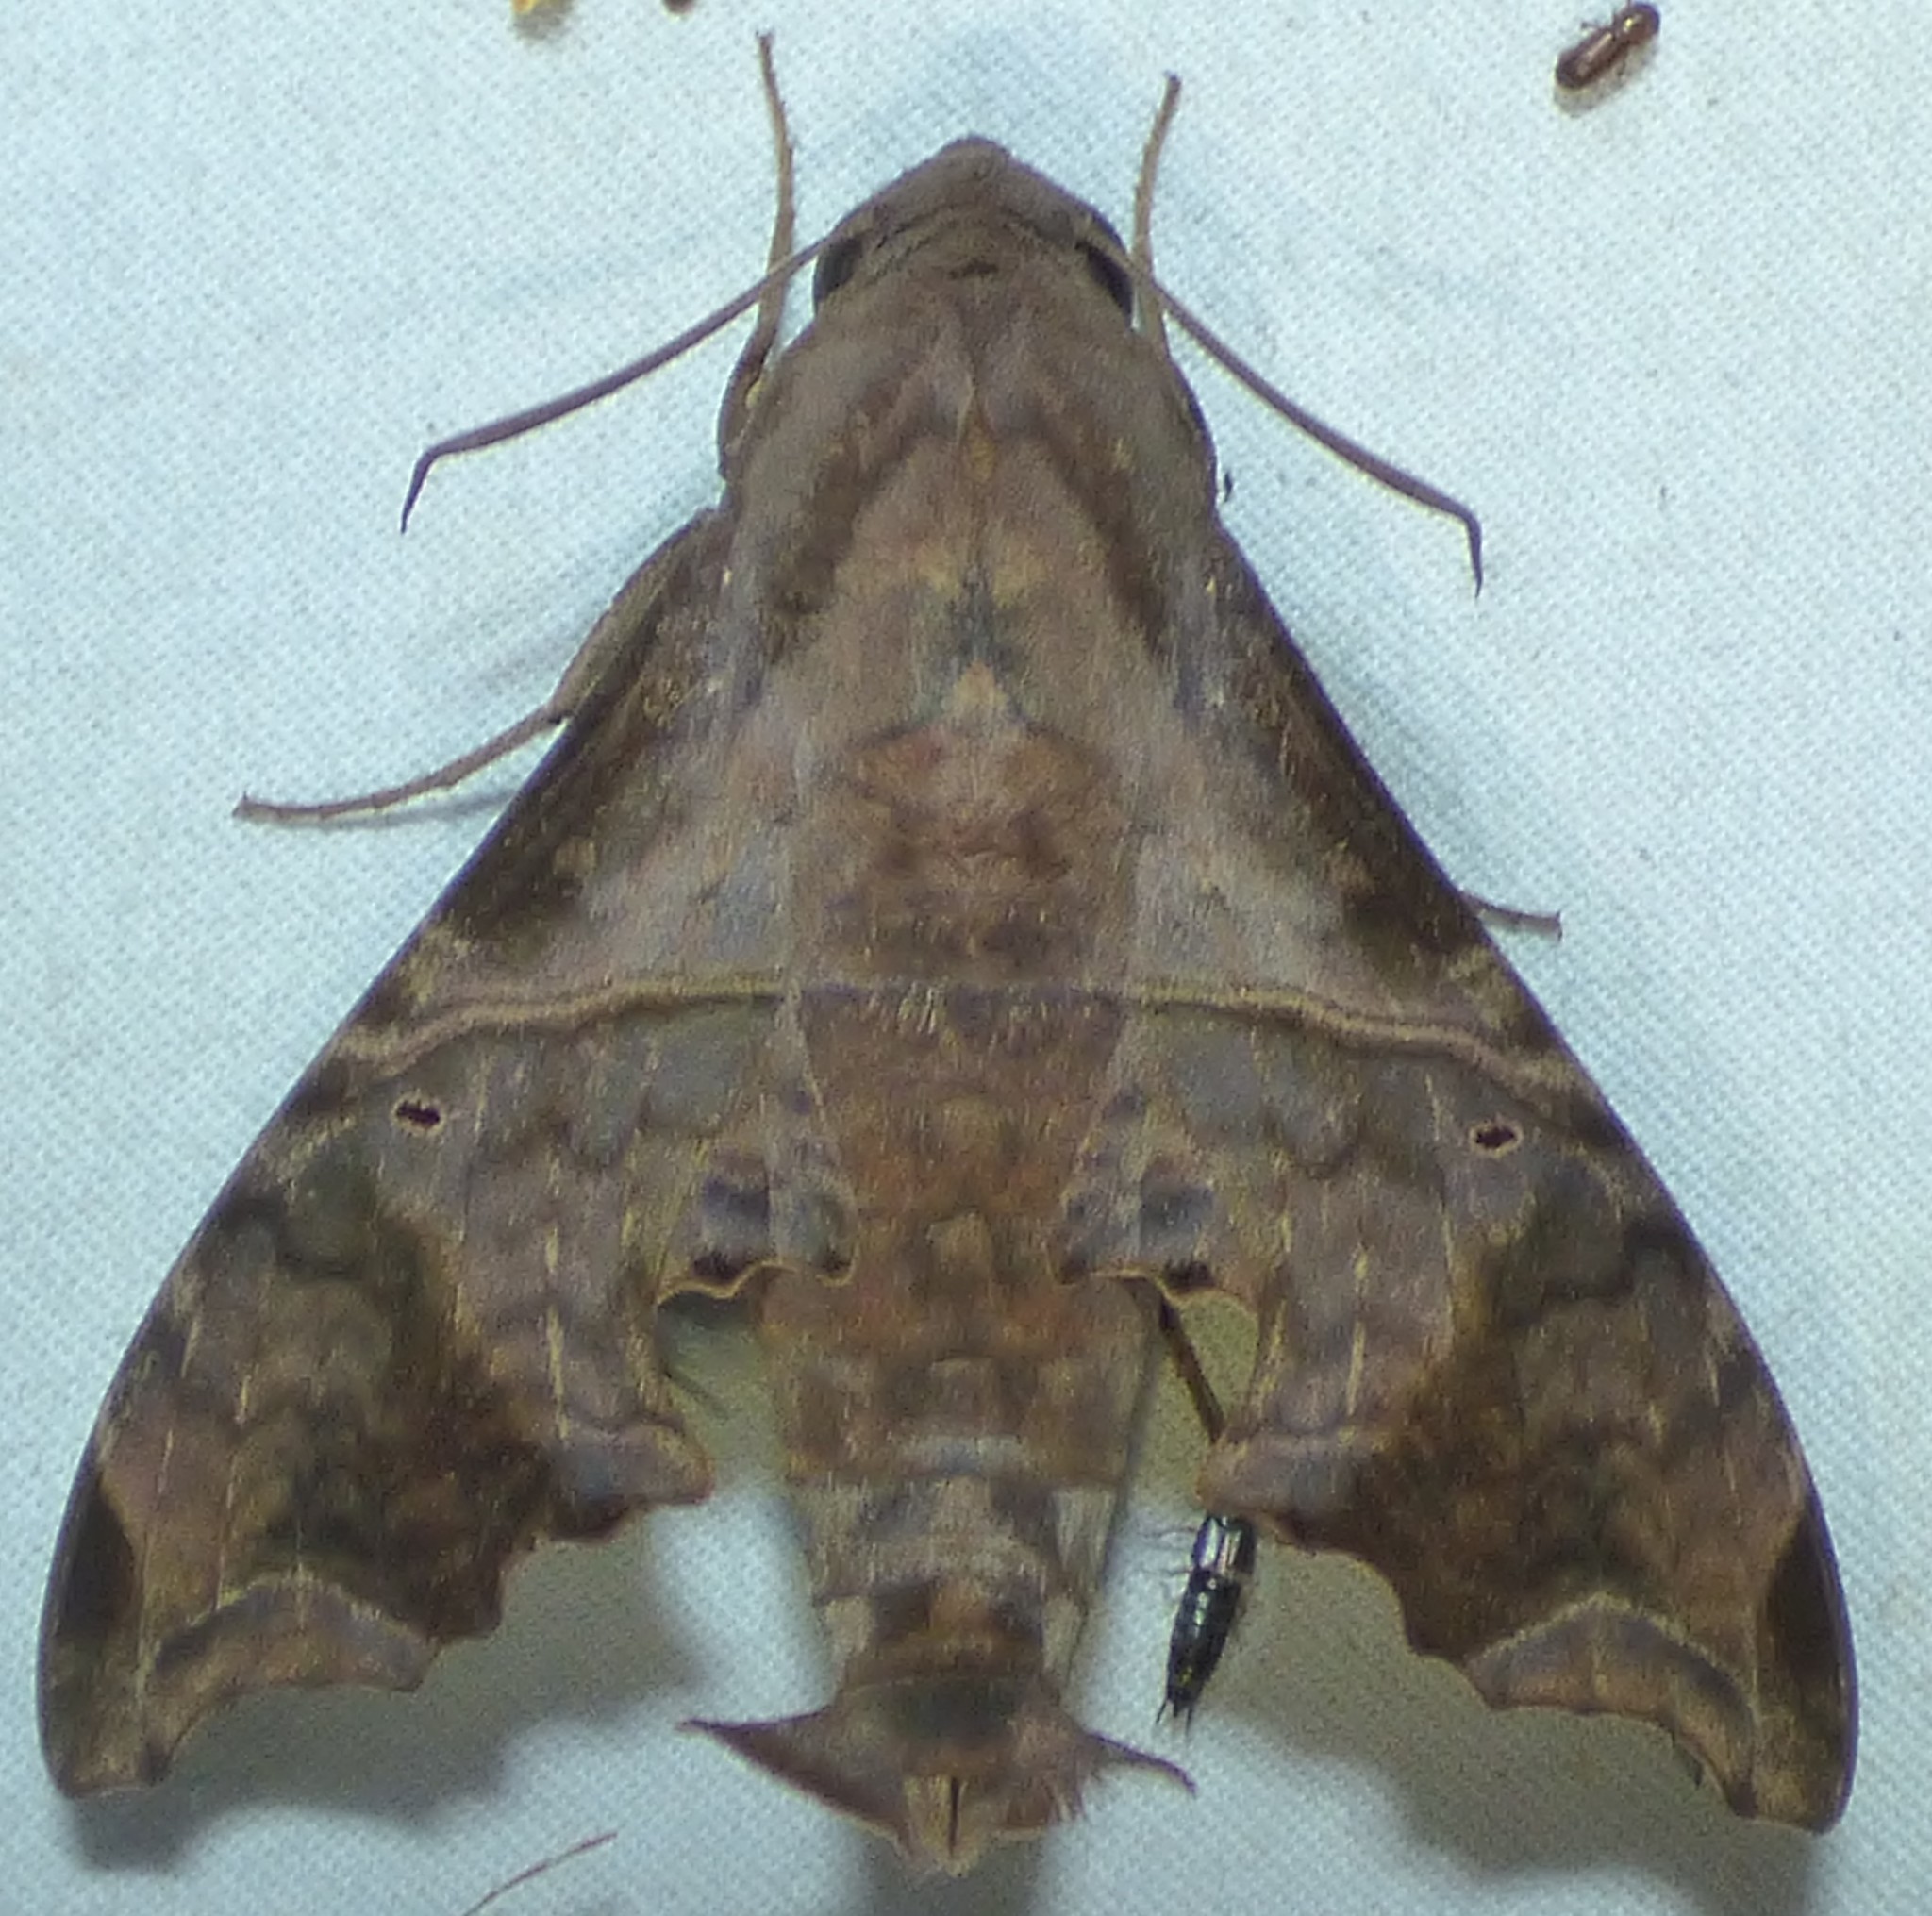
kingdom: Animalia
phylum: Arthropoda
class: Insecta
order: Lepidoptera
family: Sphingidae
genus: Enyo
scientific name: Enyo lugubris
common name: Mournful sphinx
